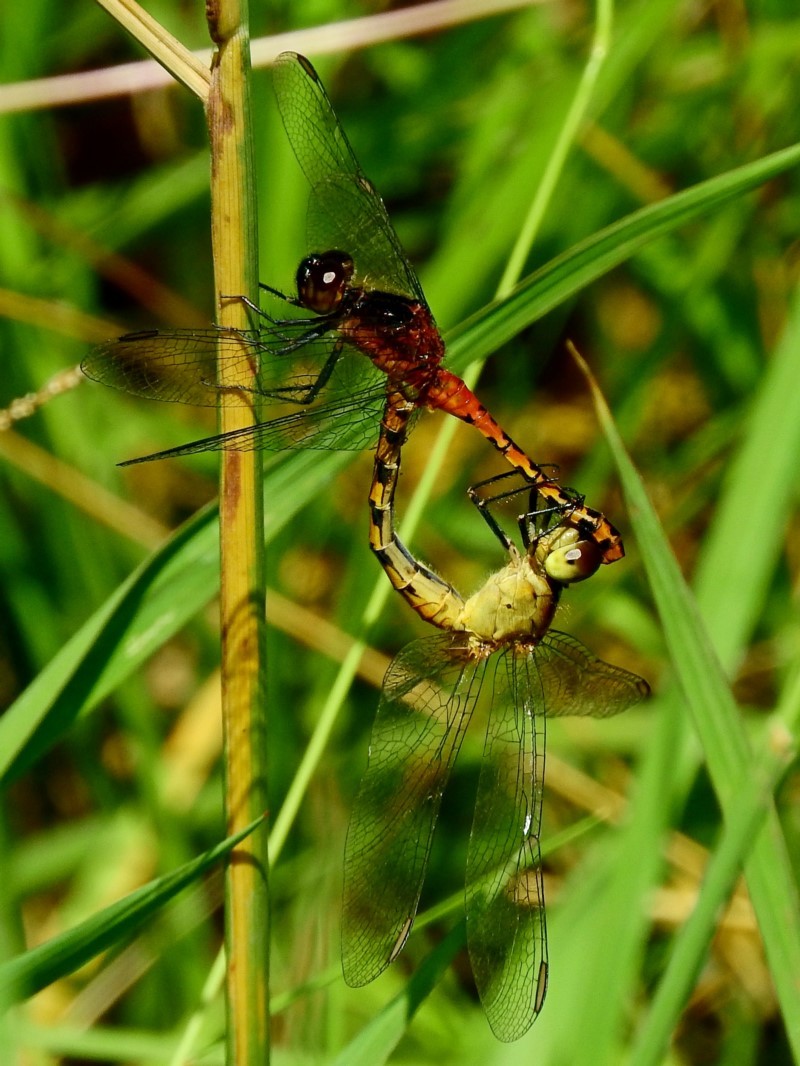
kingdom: Animalia
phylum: Arthropoda
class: Insecta
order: Odonata
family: Libellulidae
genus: Diplacodes
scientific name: Diplacodes melanopsis
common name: Black-faced percher
